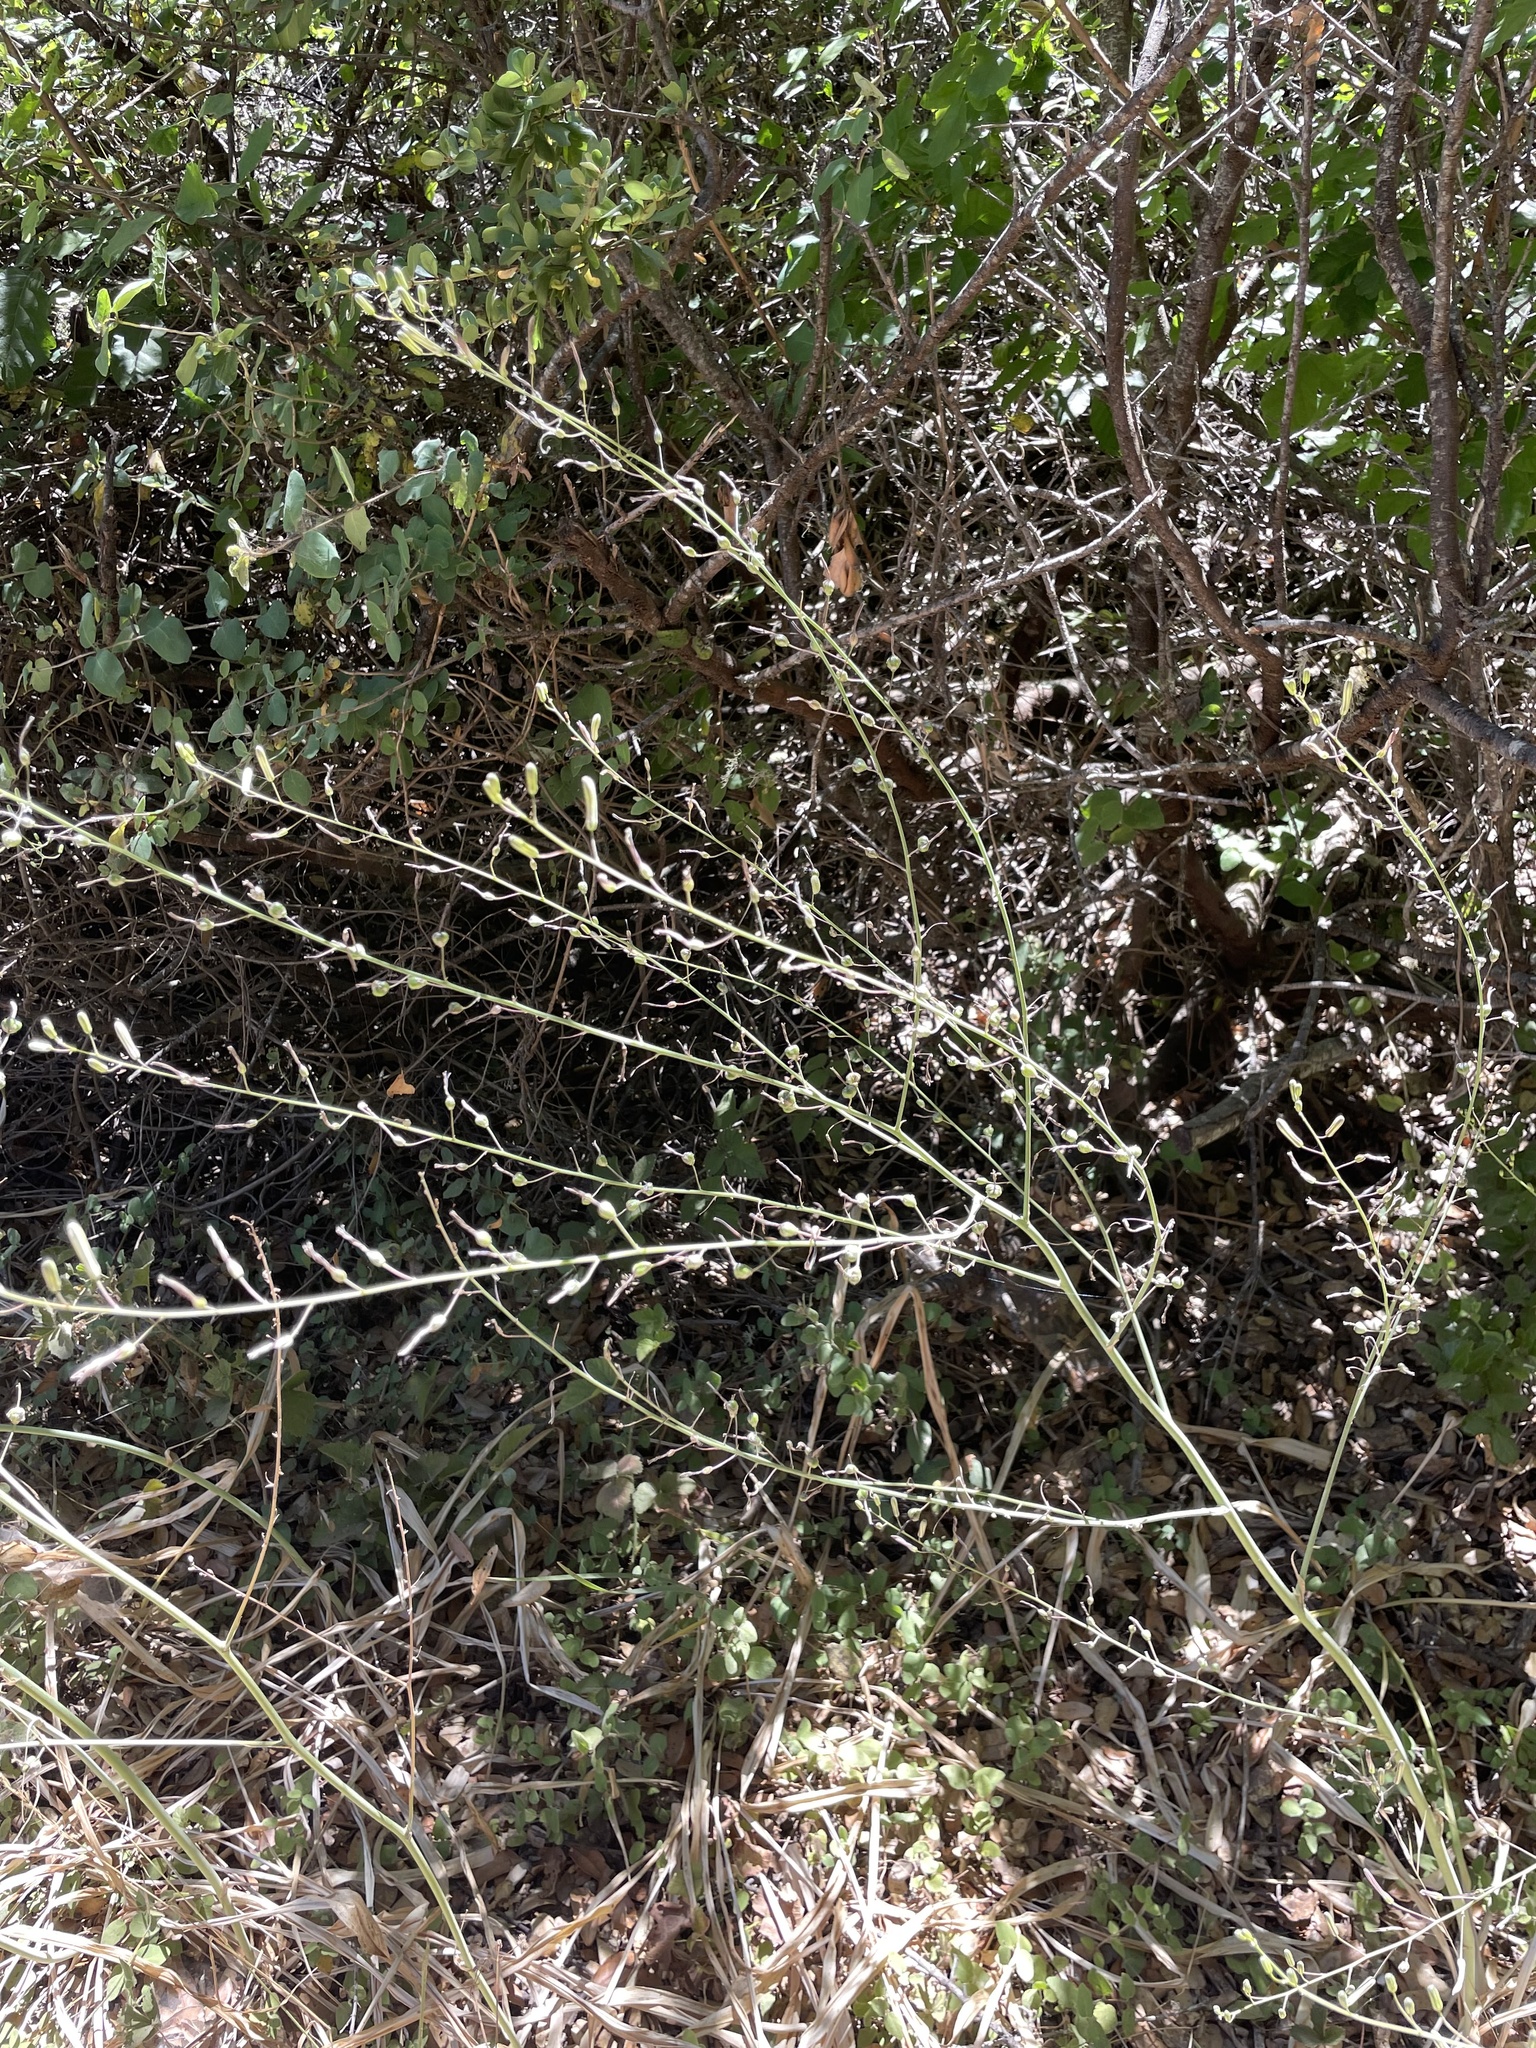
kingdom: Plantae
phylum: Tracheophyta
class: Liliopsida
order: Asparagales
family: Asparagaceae
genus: Chlorogalum
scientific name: Chlorogalum pomeridianum
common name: Amole
